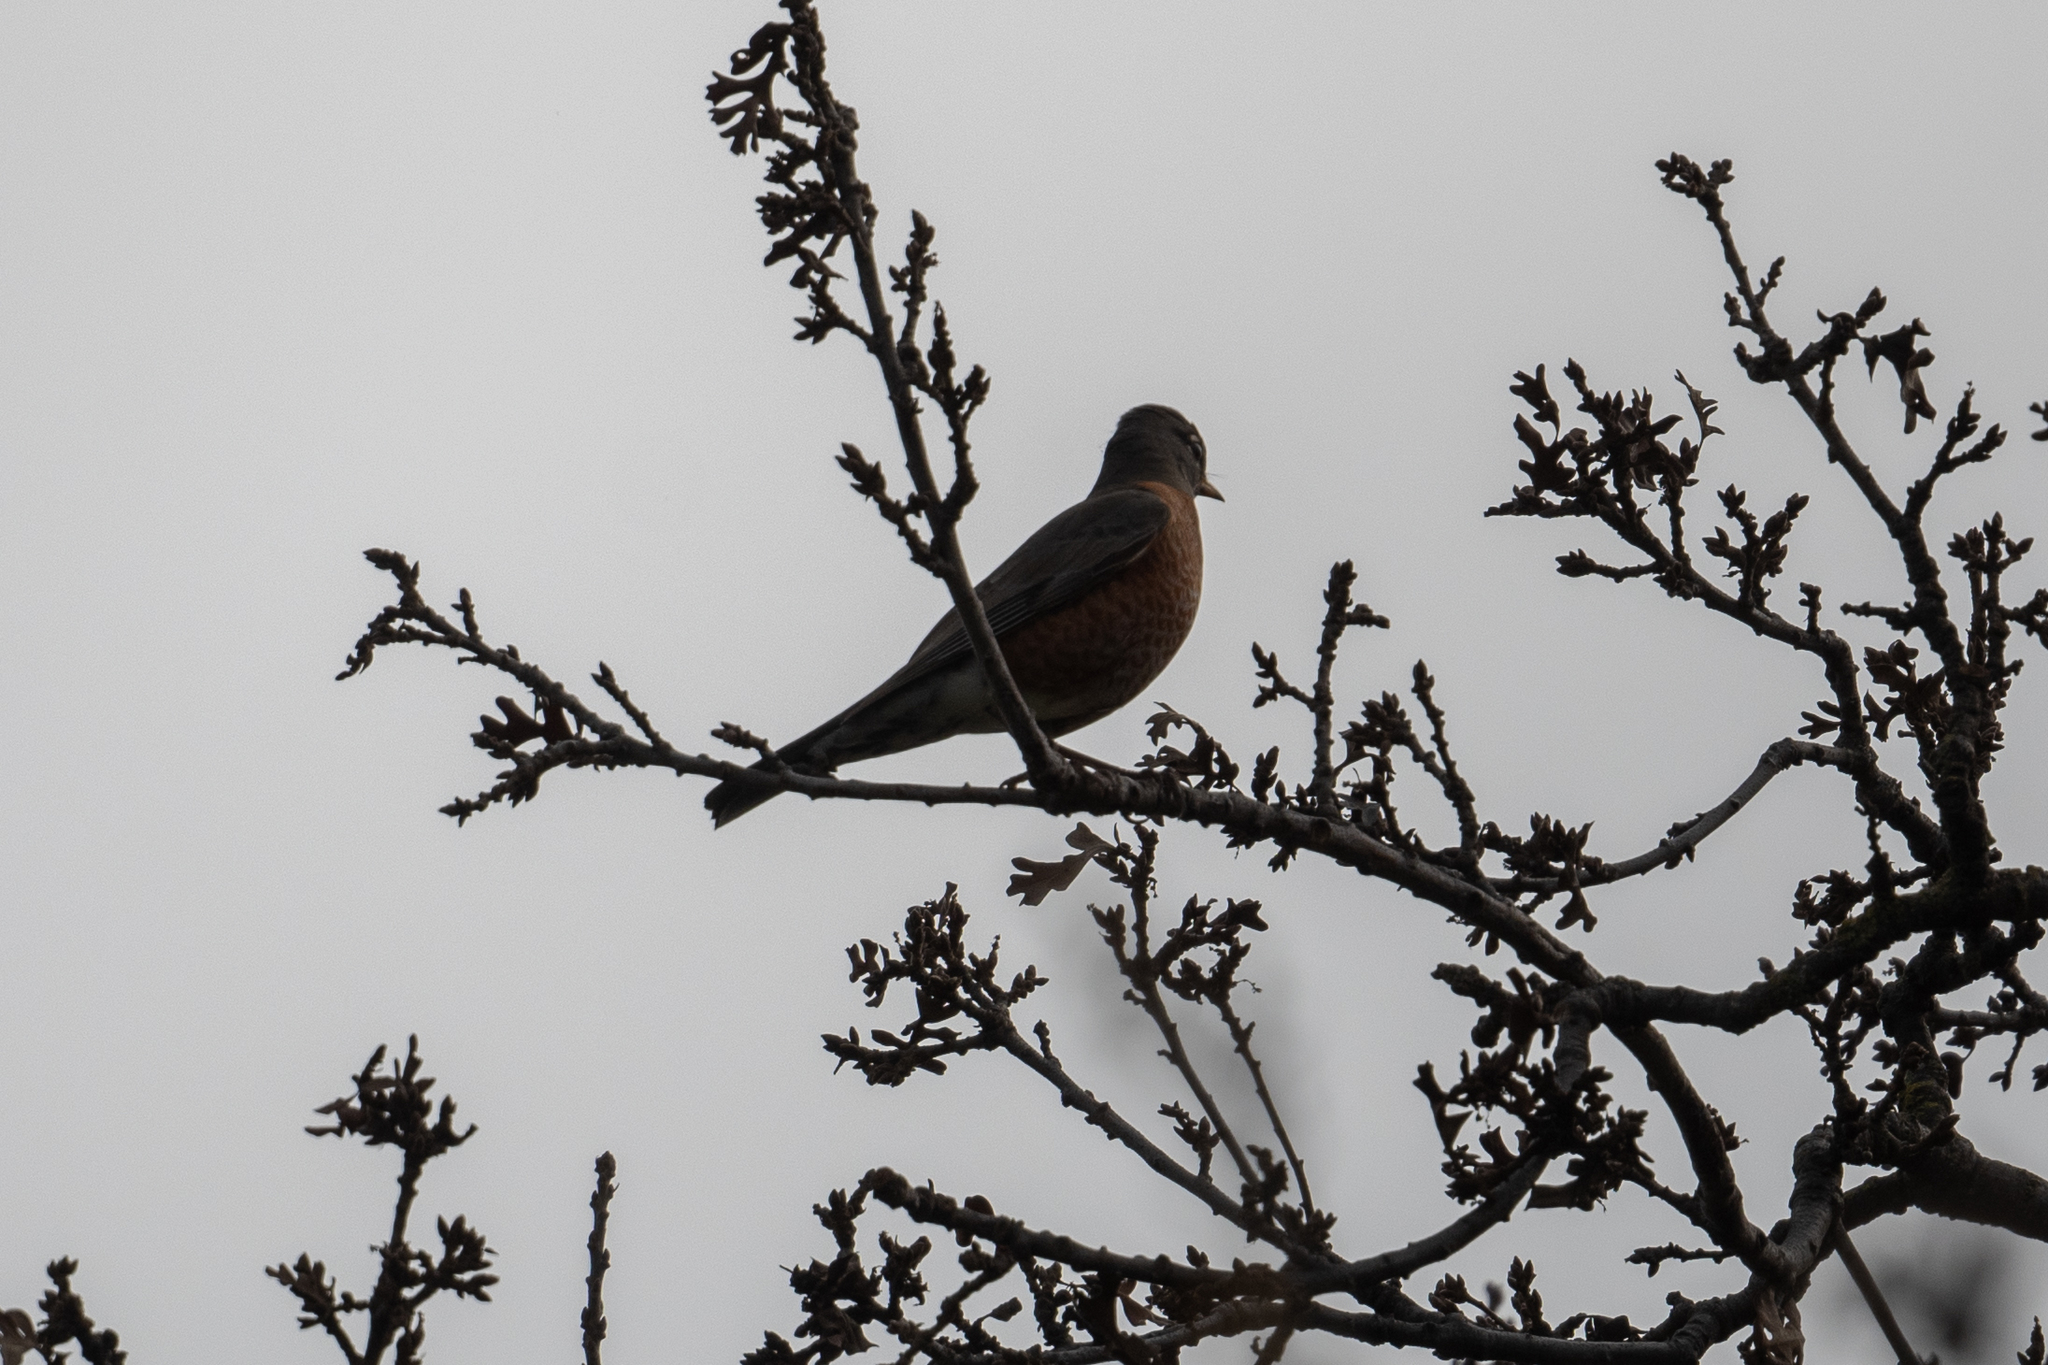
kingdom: Animalia
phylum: Chordata
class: Aves
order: Passeriformes
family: Turdidae
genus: Turdus
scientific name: Turdus migratorius
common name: American robin
